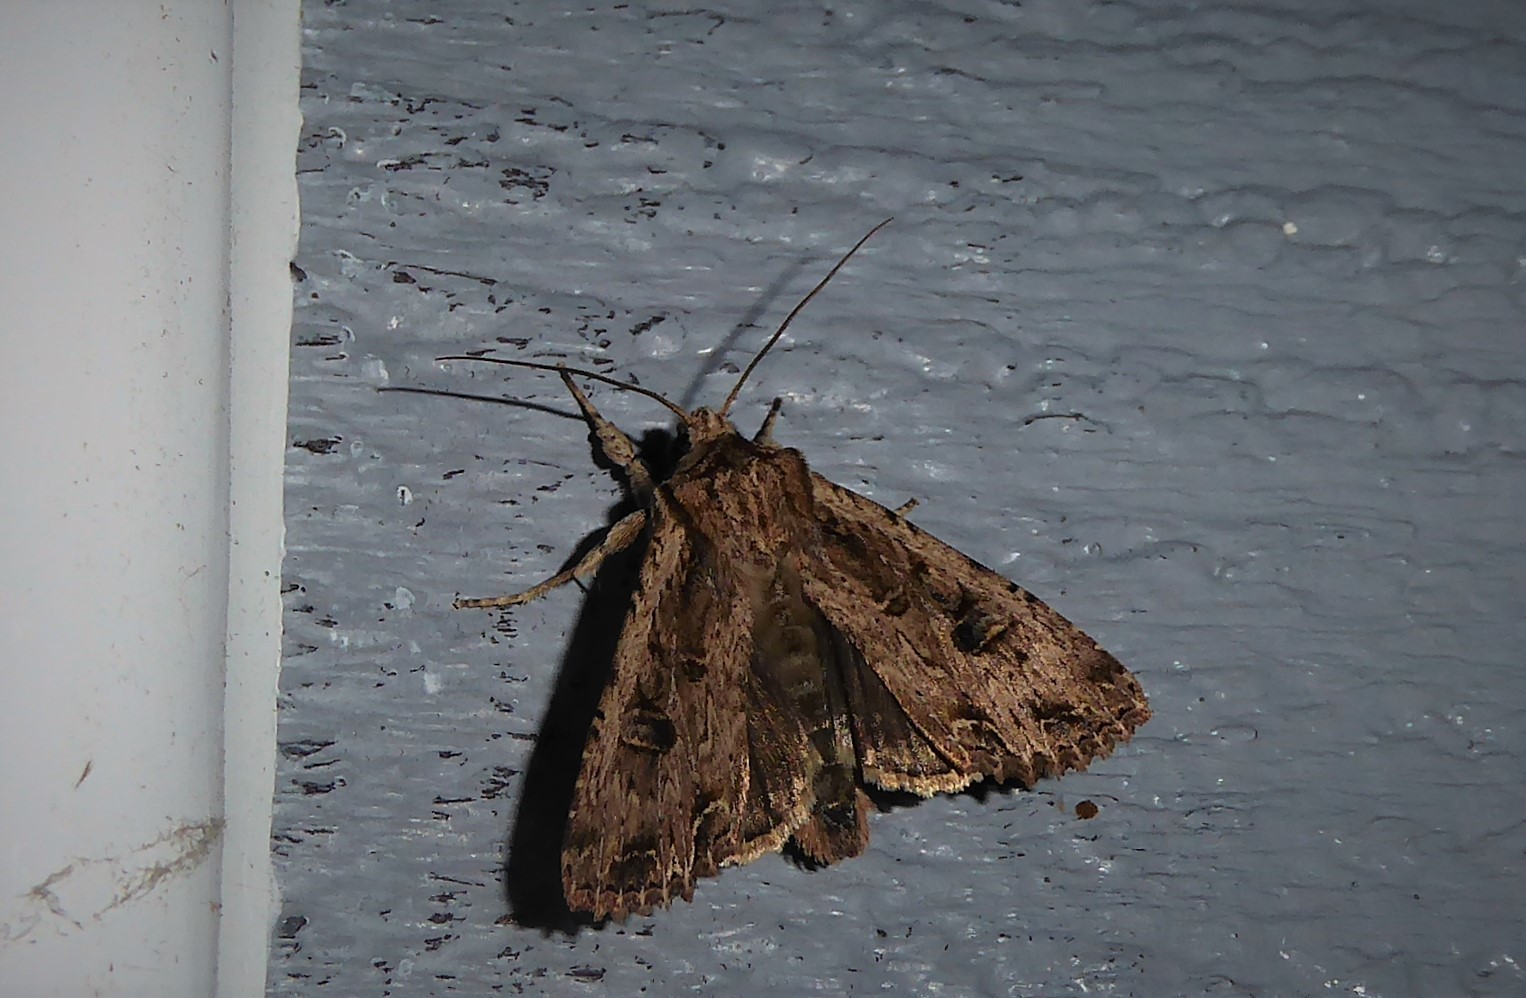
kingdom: Animalia
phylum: Arthropoda
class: Insecta
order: Lepidoptera
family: Noctuidae
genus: Ichneutica
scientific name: Ichneutica lignana
